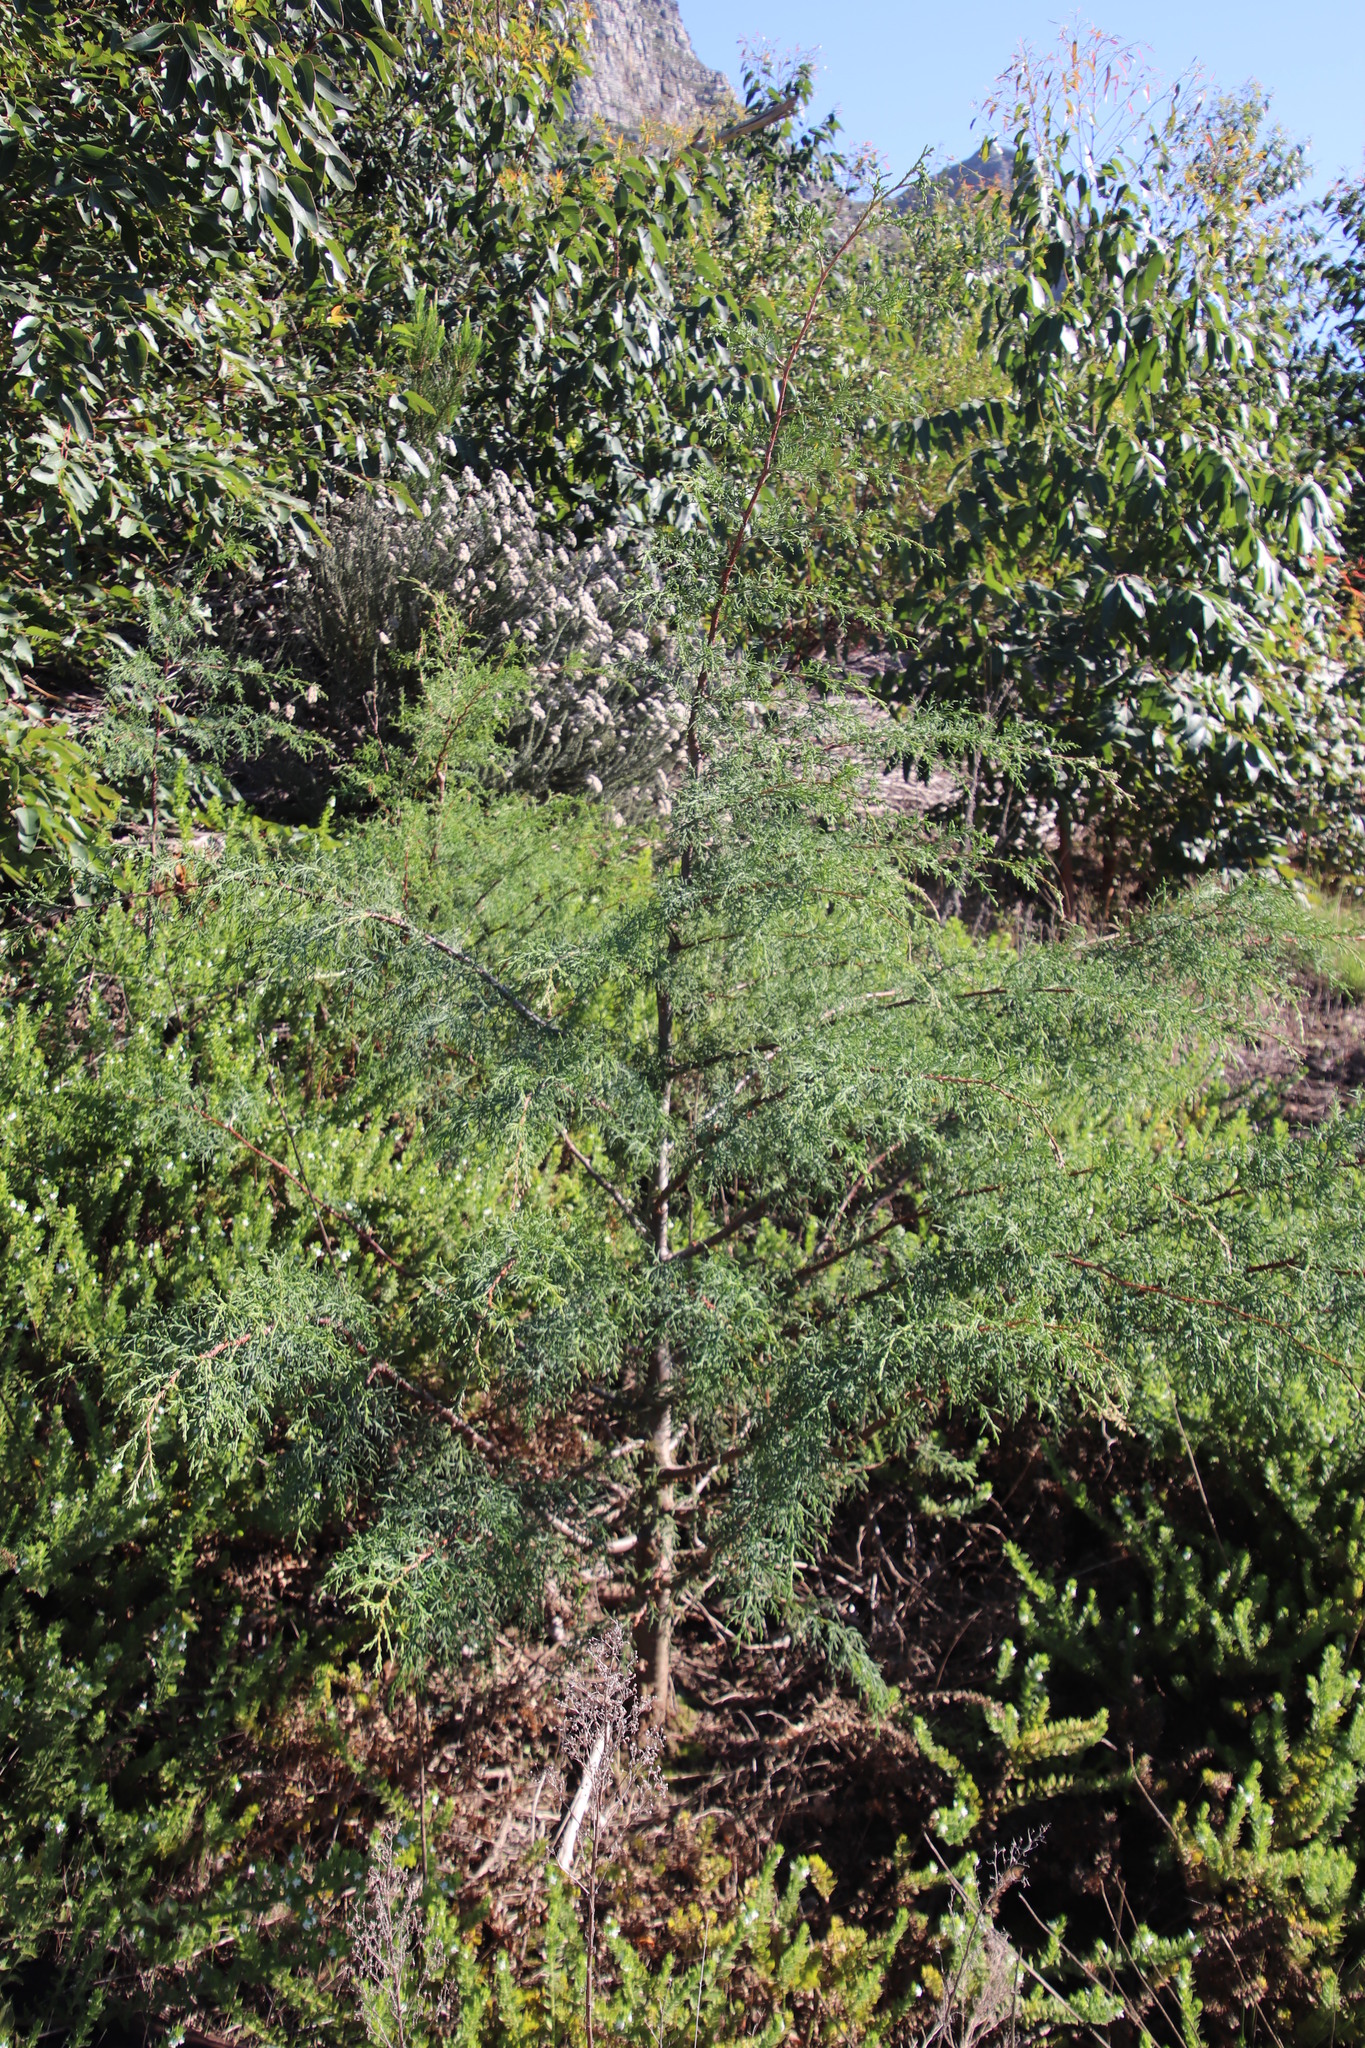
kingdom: Plantae
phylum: Tracheophyta
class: Pinopsida
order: Pinales
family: Cupressaceae
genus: Cupressus
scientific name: Cupressus lusitanica
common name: Mexican cypress
